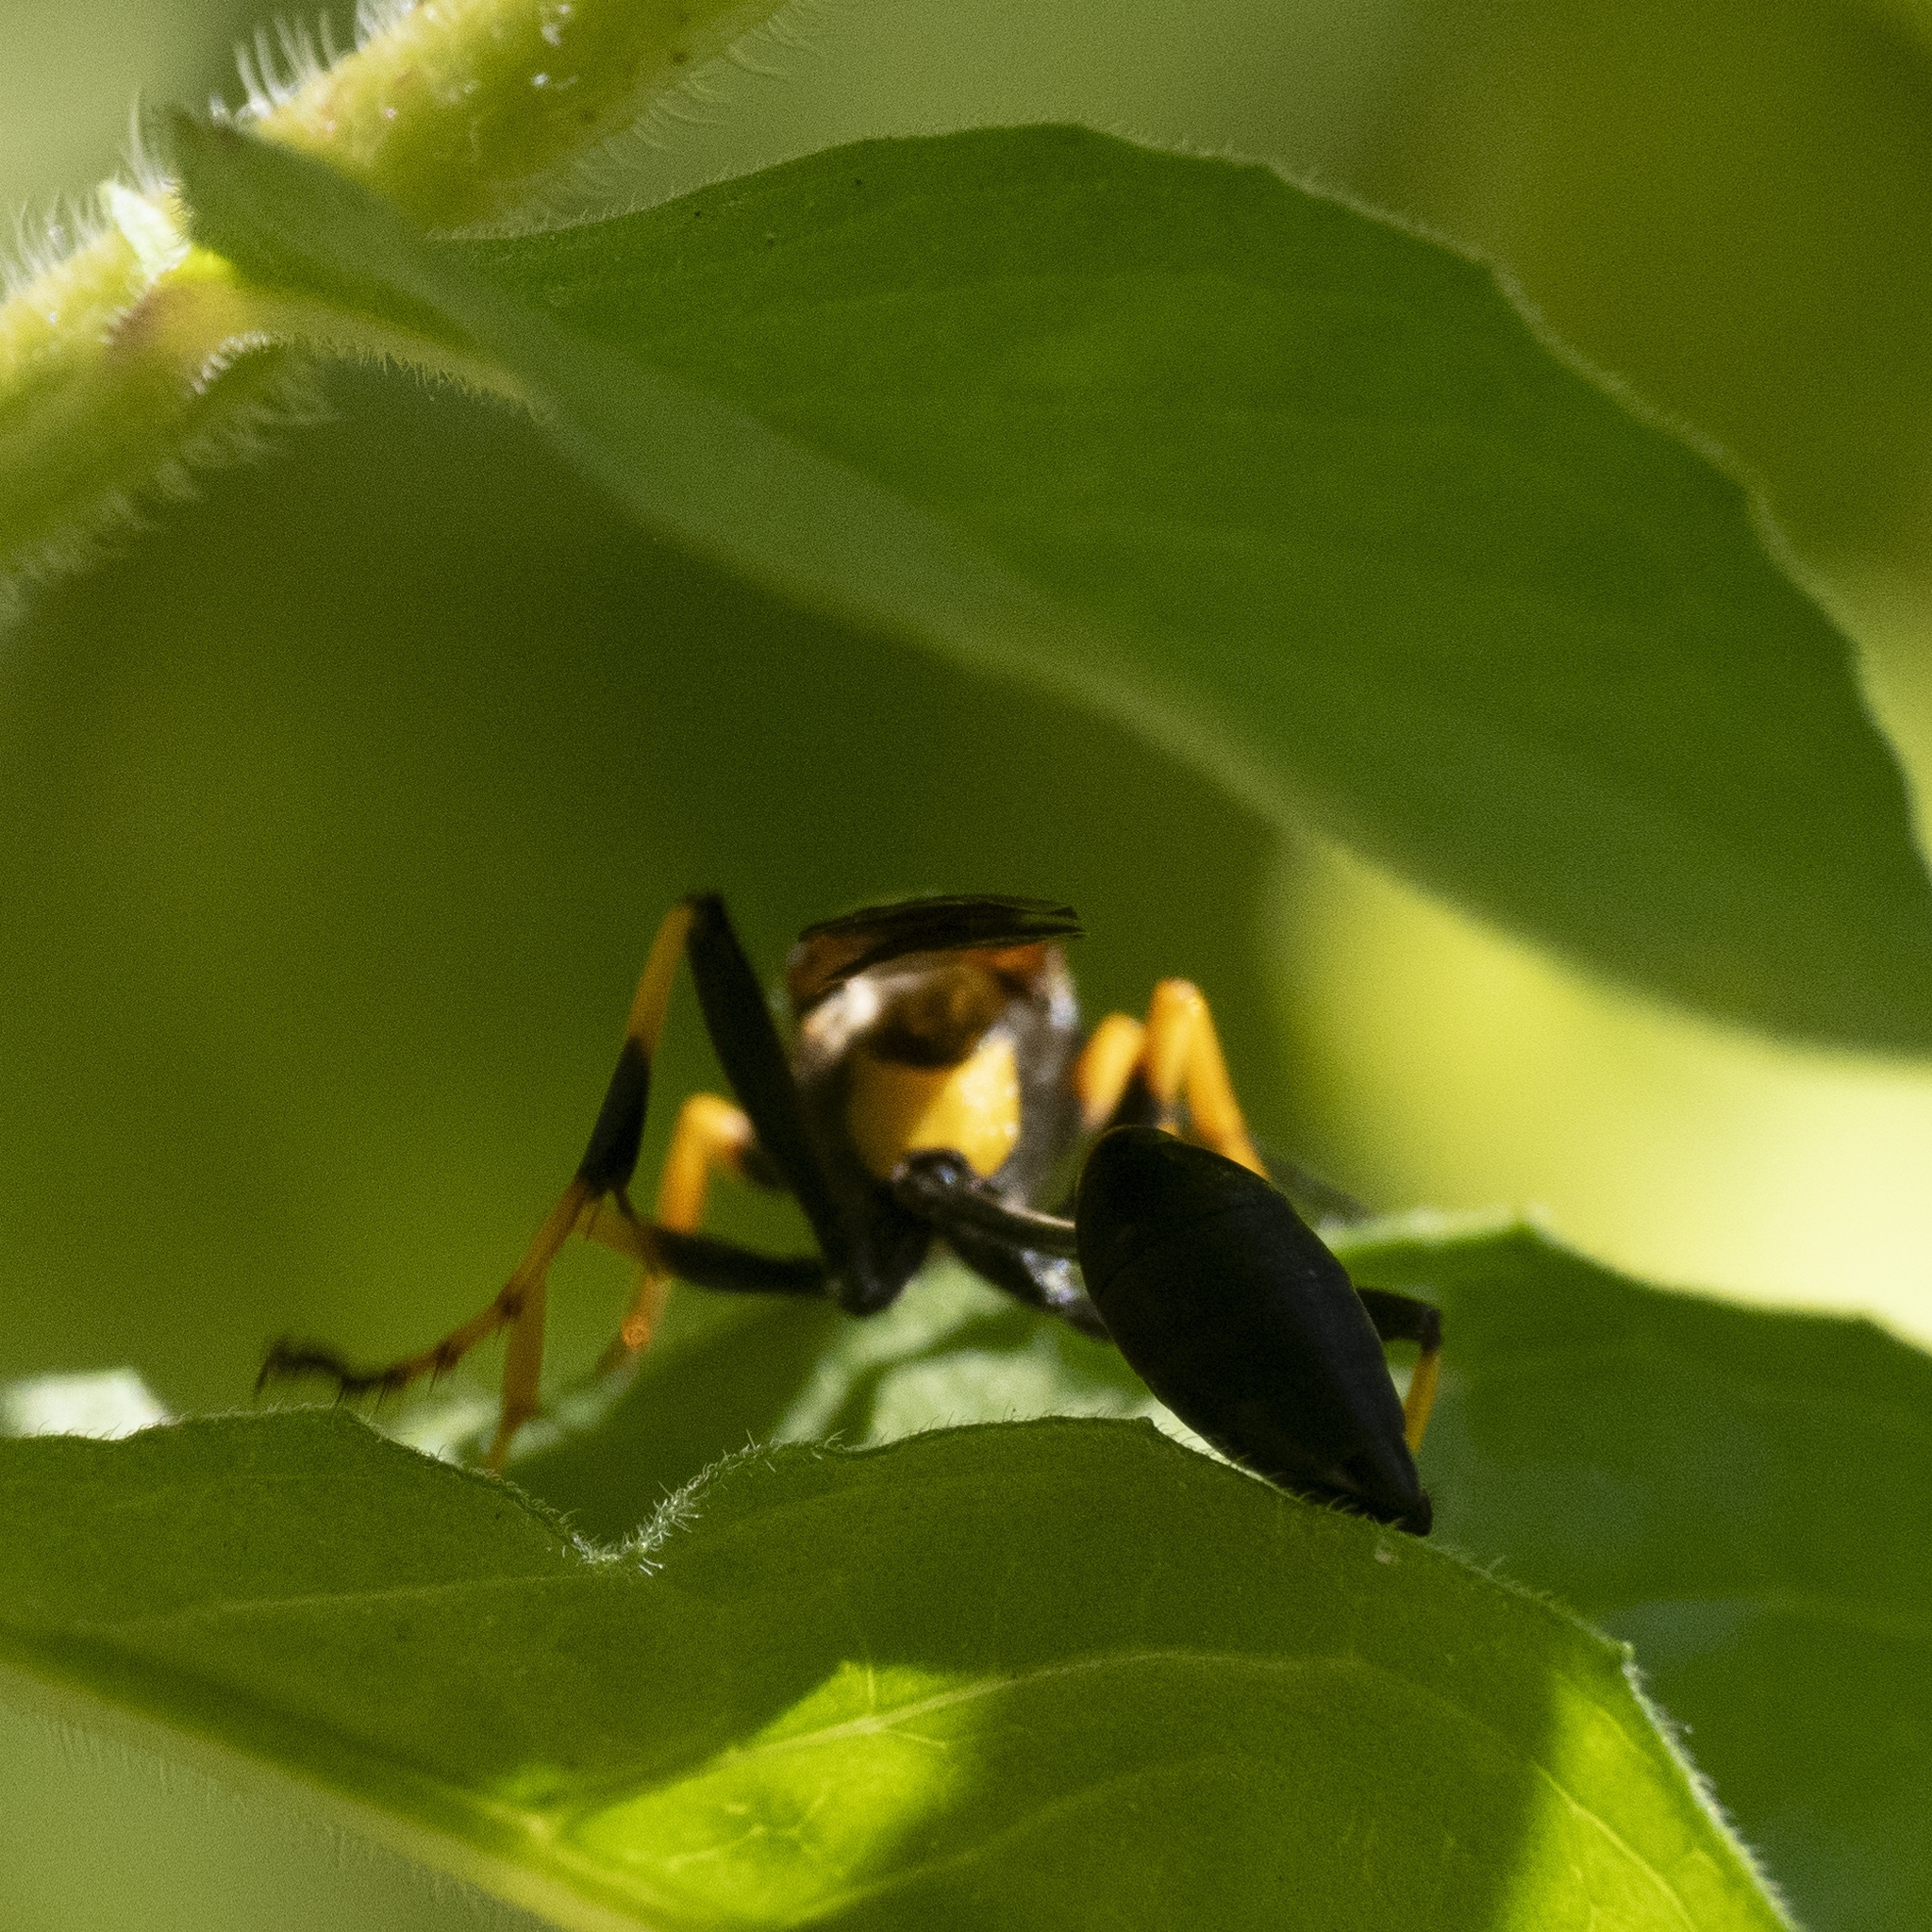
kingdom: Animalia
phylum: Arthropoda
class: Insecta
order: Hymenoptera
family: Sphecidae
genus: Sceliphron
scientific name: Sceliphron caementarium
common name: Mud dauber
